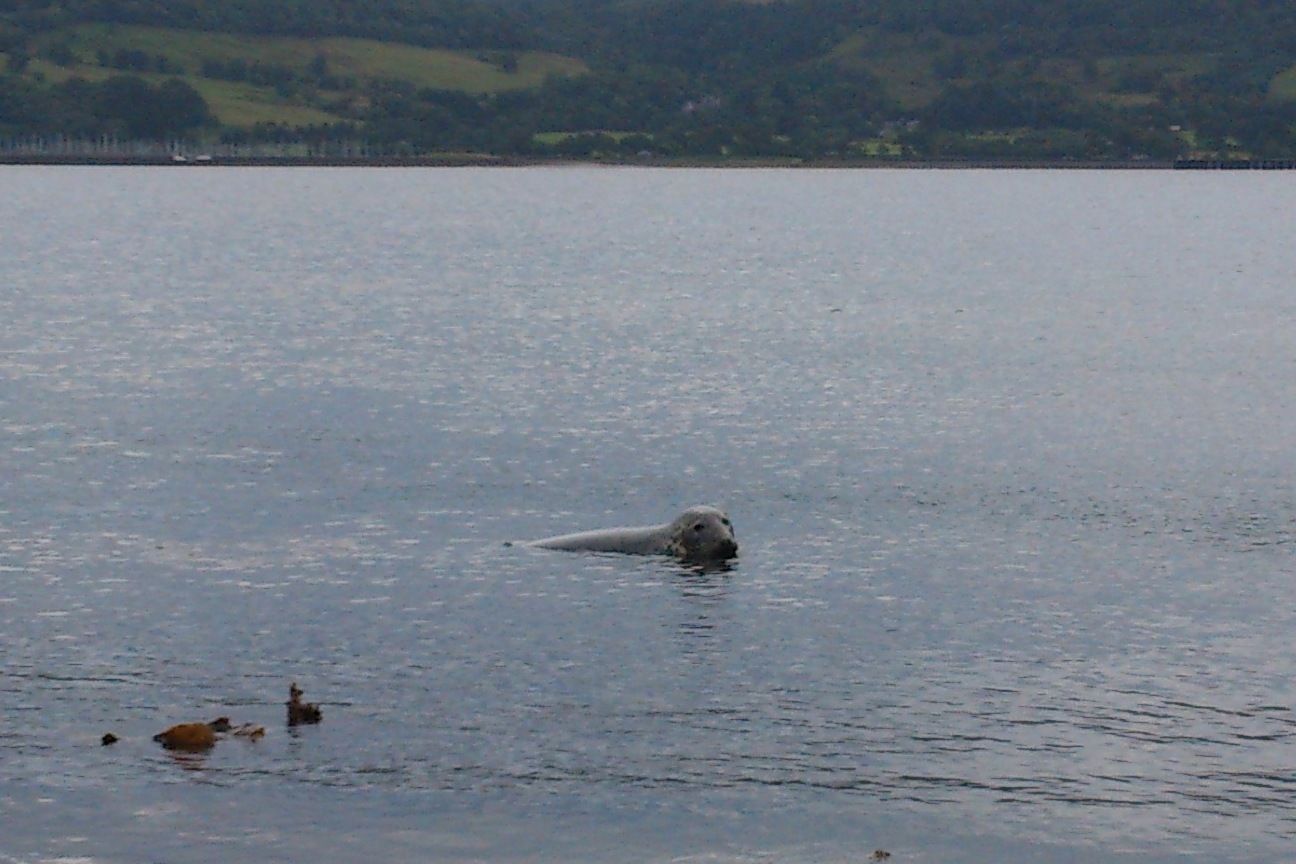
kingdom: Animalia
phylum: Chordata
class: Mammalia
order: Carnivora
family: Phocidae
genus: Halichoerus
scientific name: Halichoerus grypus
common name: Grey seal
